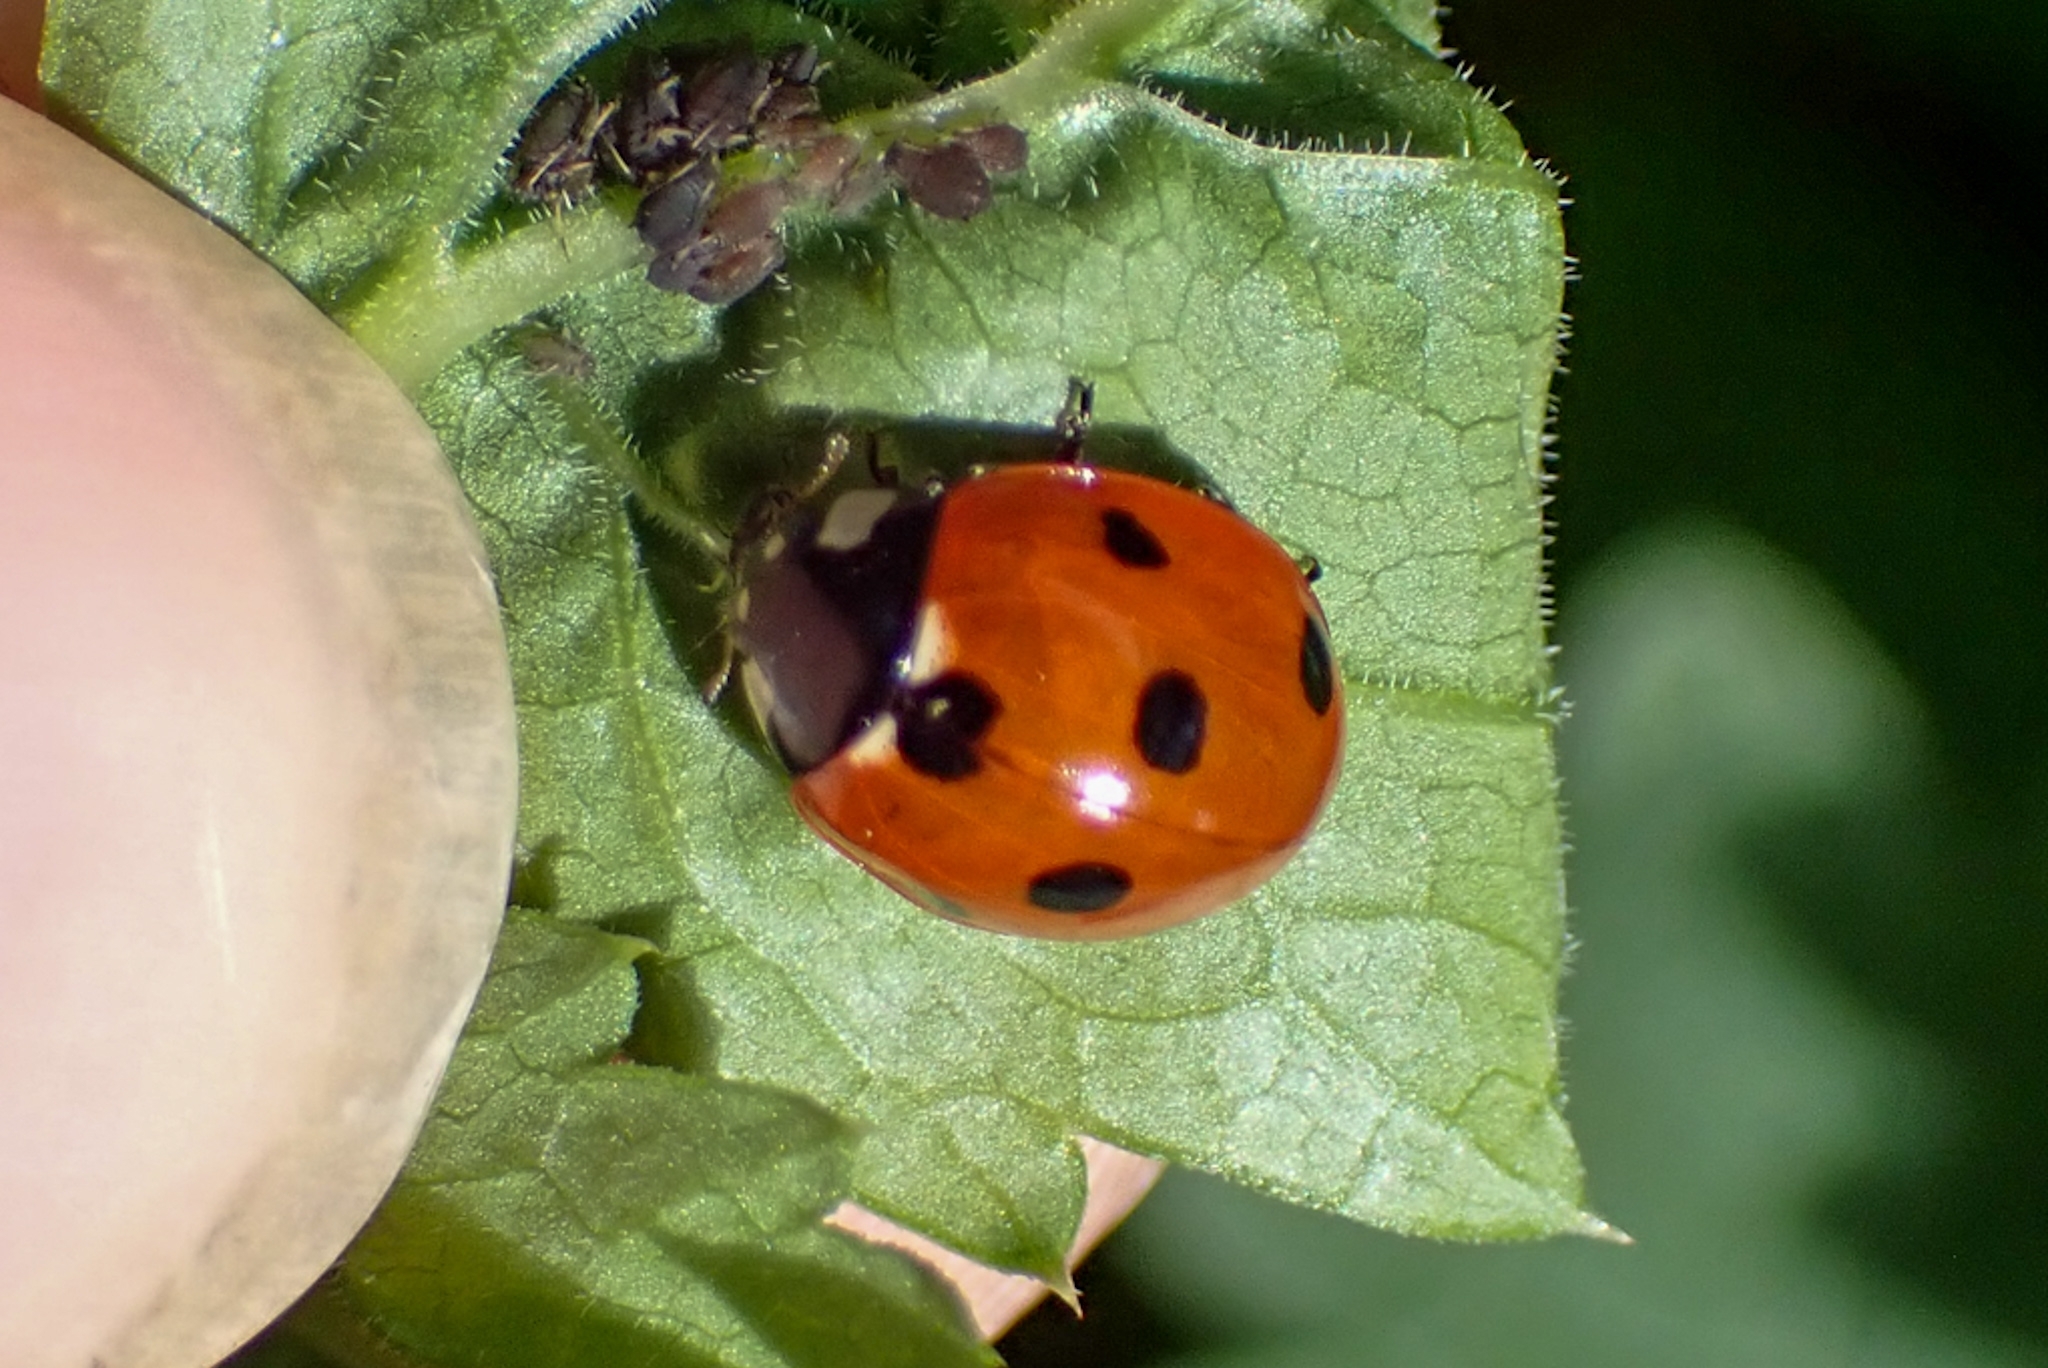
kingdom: Animalia
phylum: Arthropoda
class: Insecta
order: Coleoptera
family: Coccinellidae
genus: Coccinella
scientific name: Coccinella septempunctata
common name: Sevenspotted lady beetle
